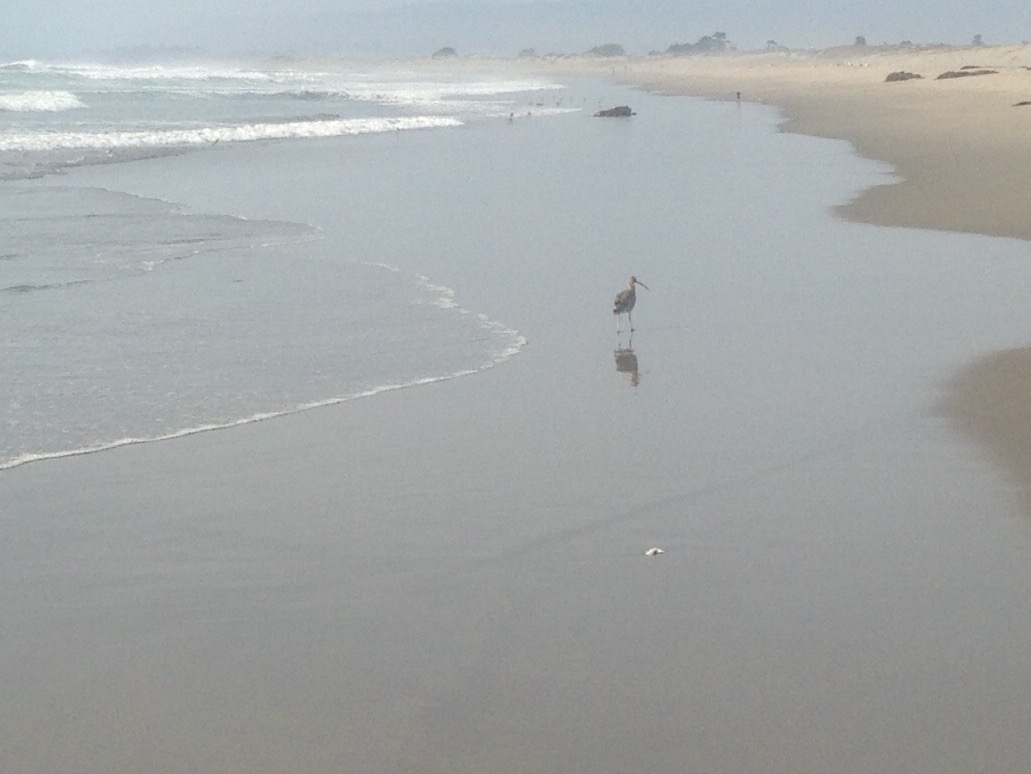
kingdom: Animalia
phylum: Chordata
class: Aves
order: Charadriiformes
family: Scolopacidae
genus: Numenius
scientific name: Numenius americanus
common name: Long-billed curlew
